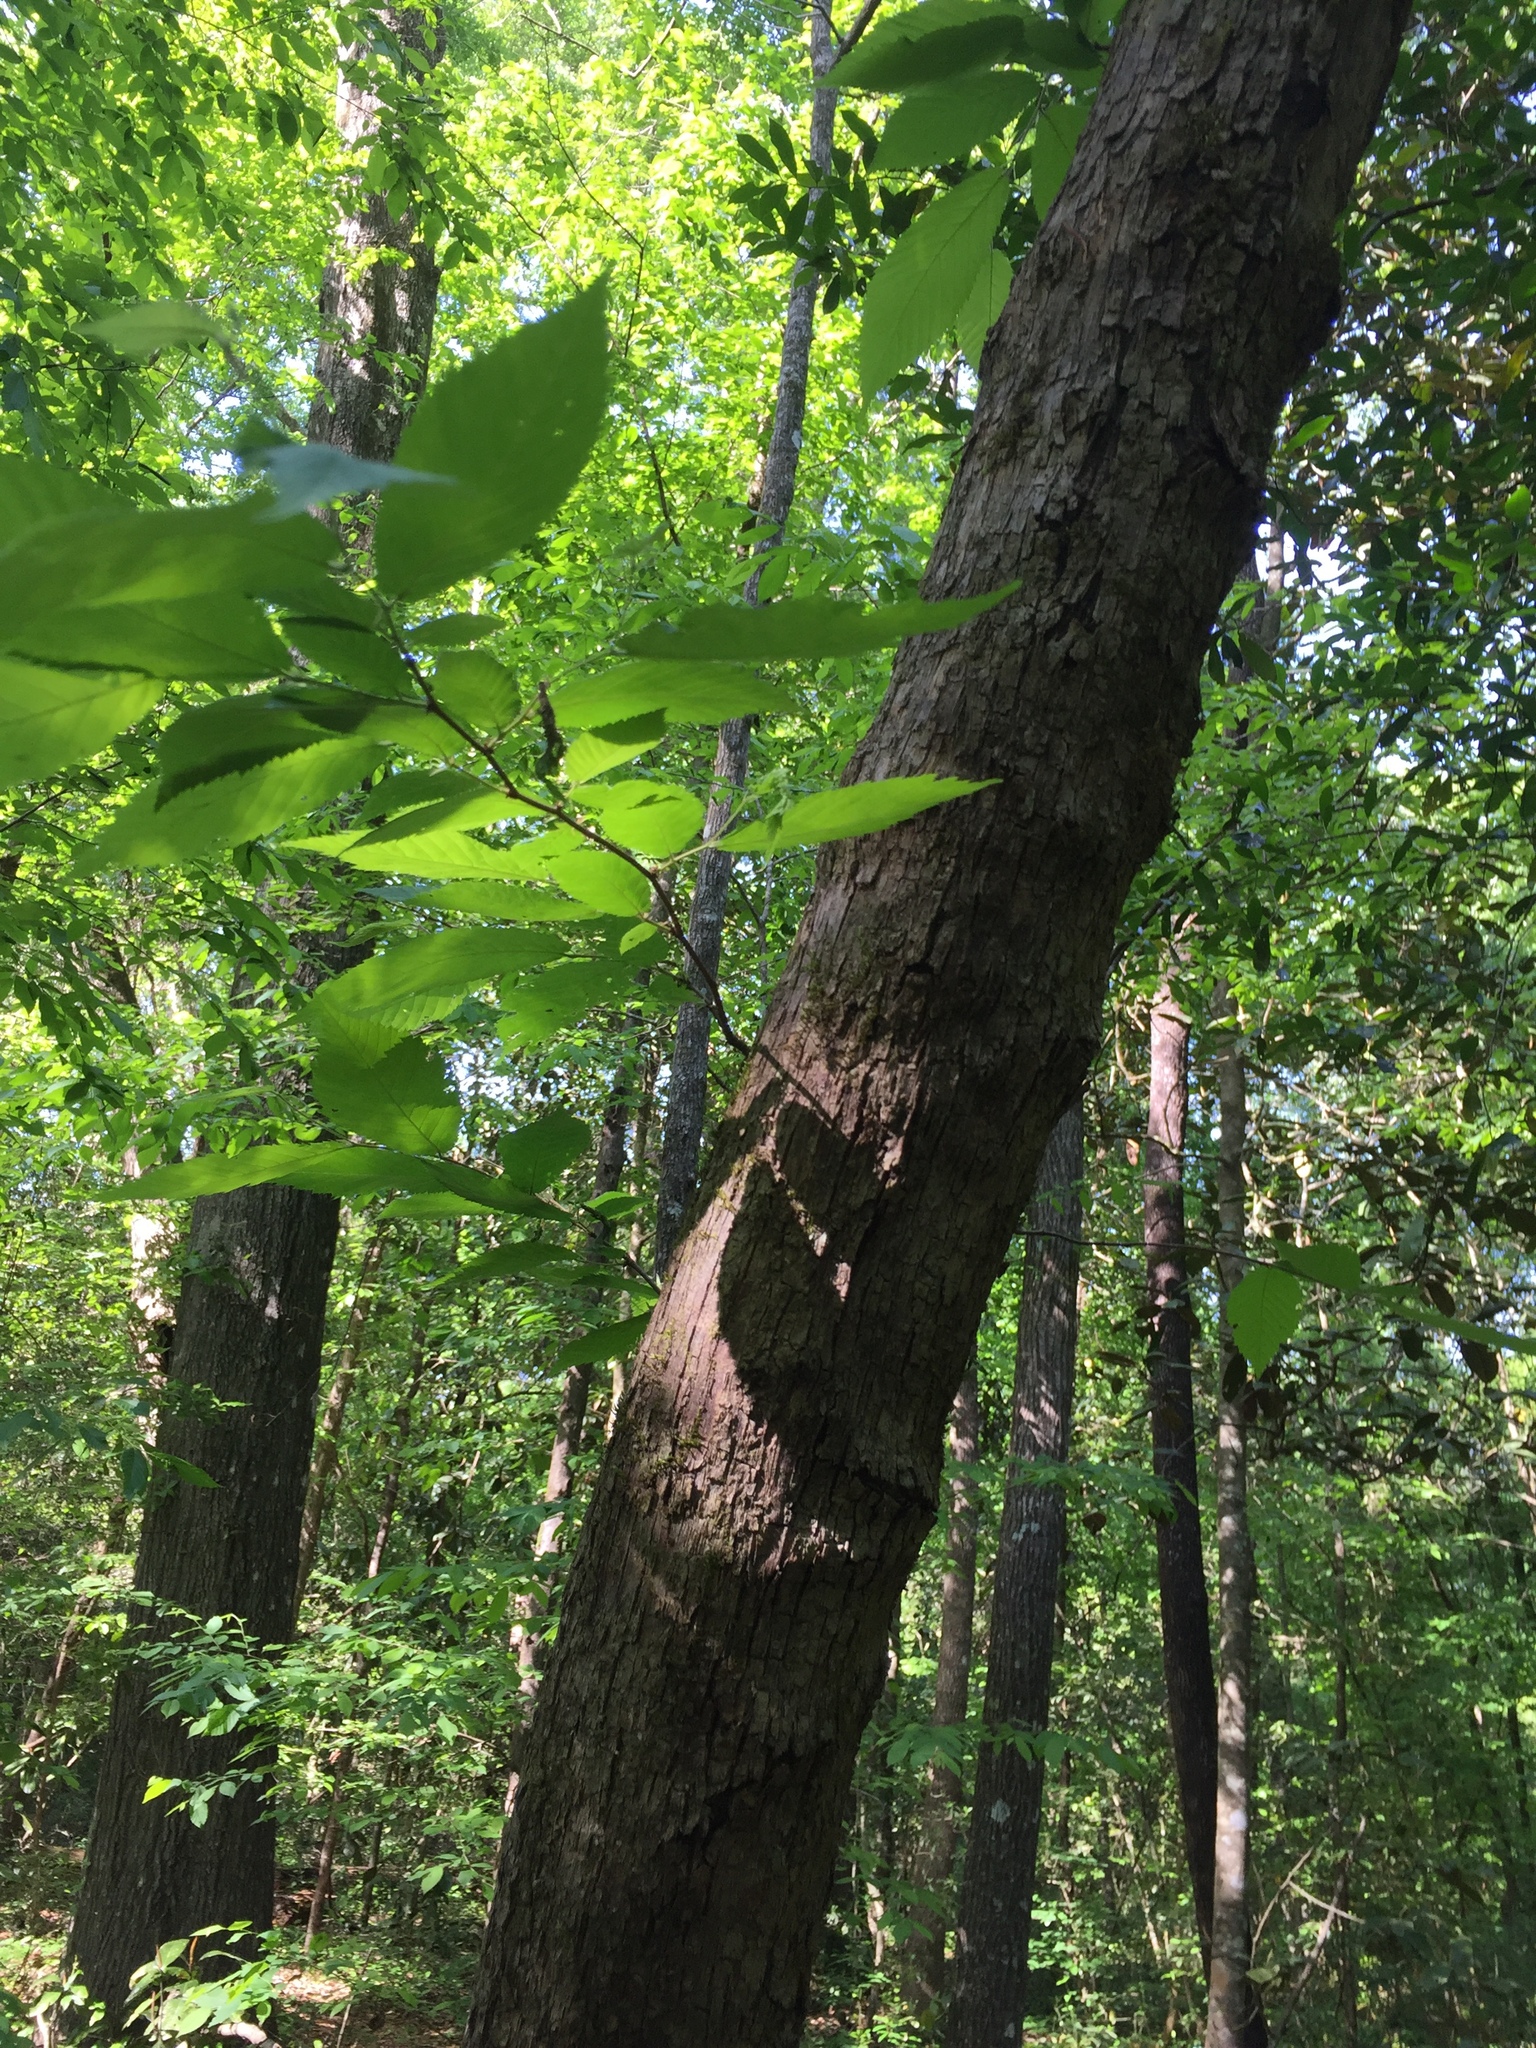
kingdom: Plantae
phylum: Tracheophyta
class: Magnoliopsida
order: Fagales
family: Betulaceae
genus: Ostrya
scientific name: Ostrya virginiana
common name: Ironwood
